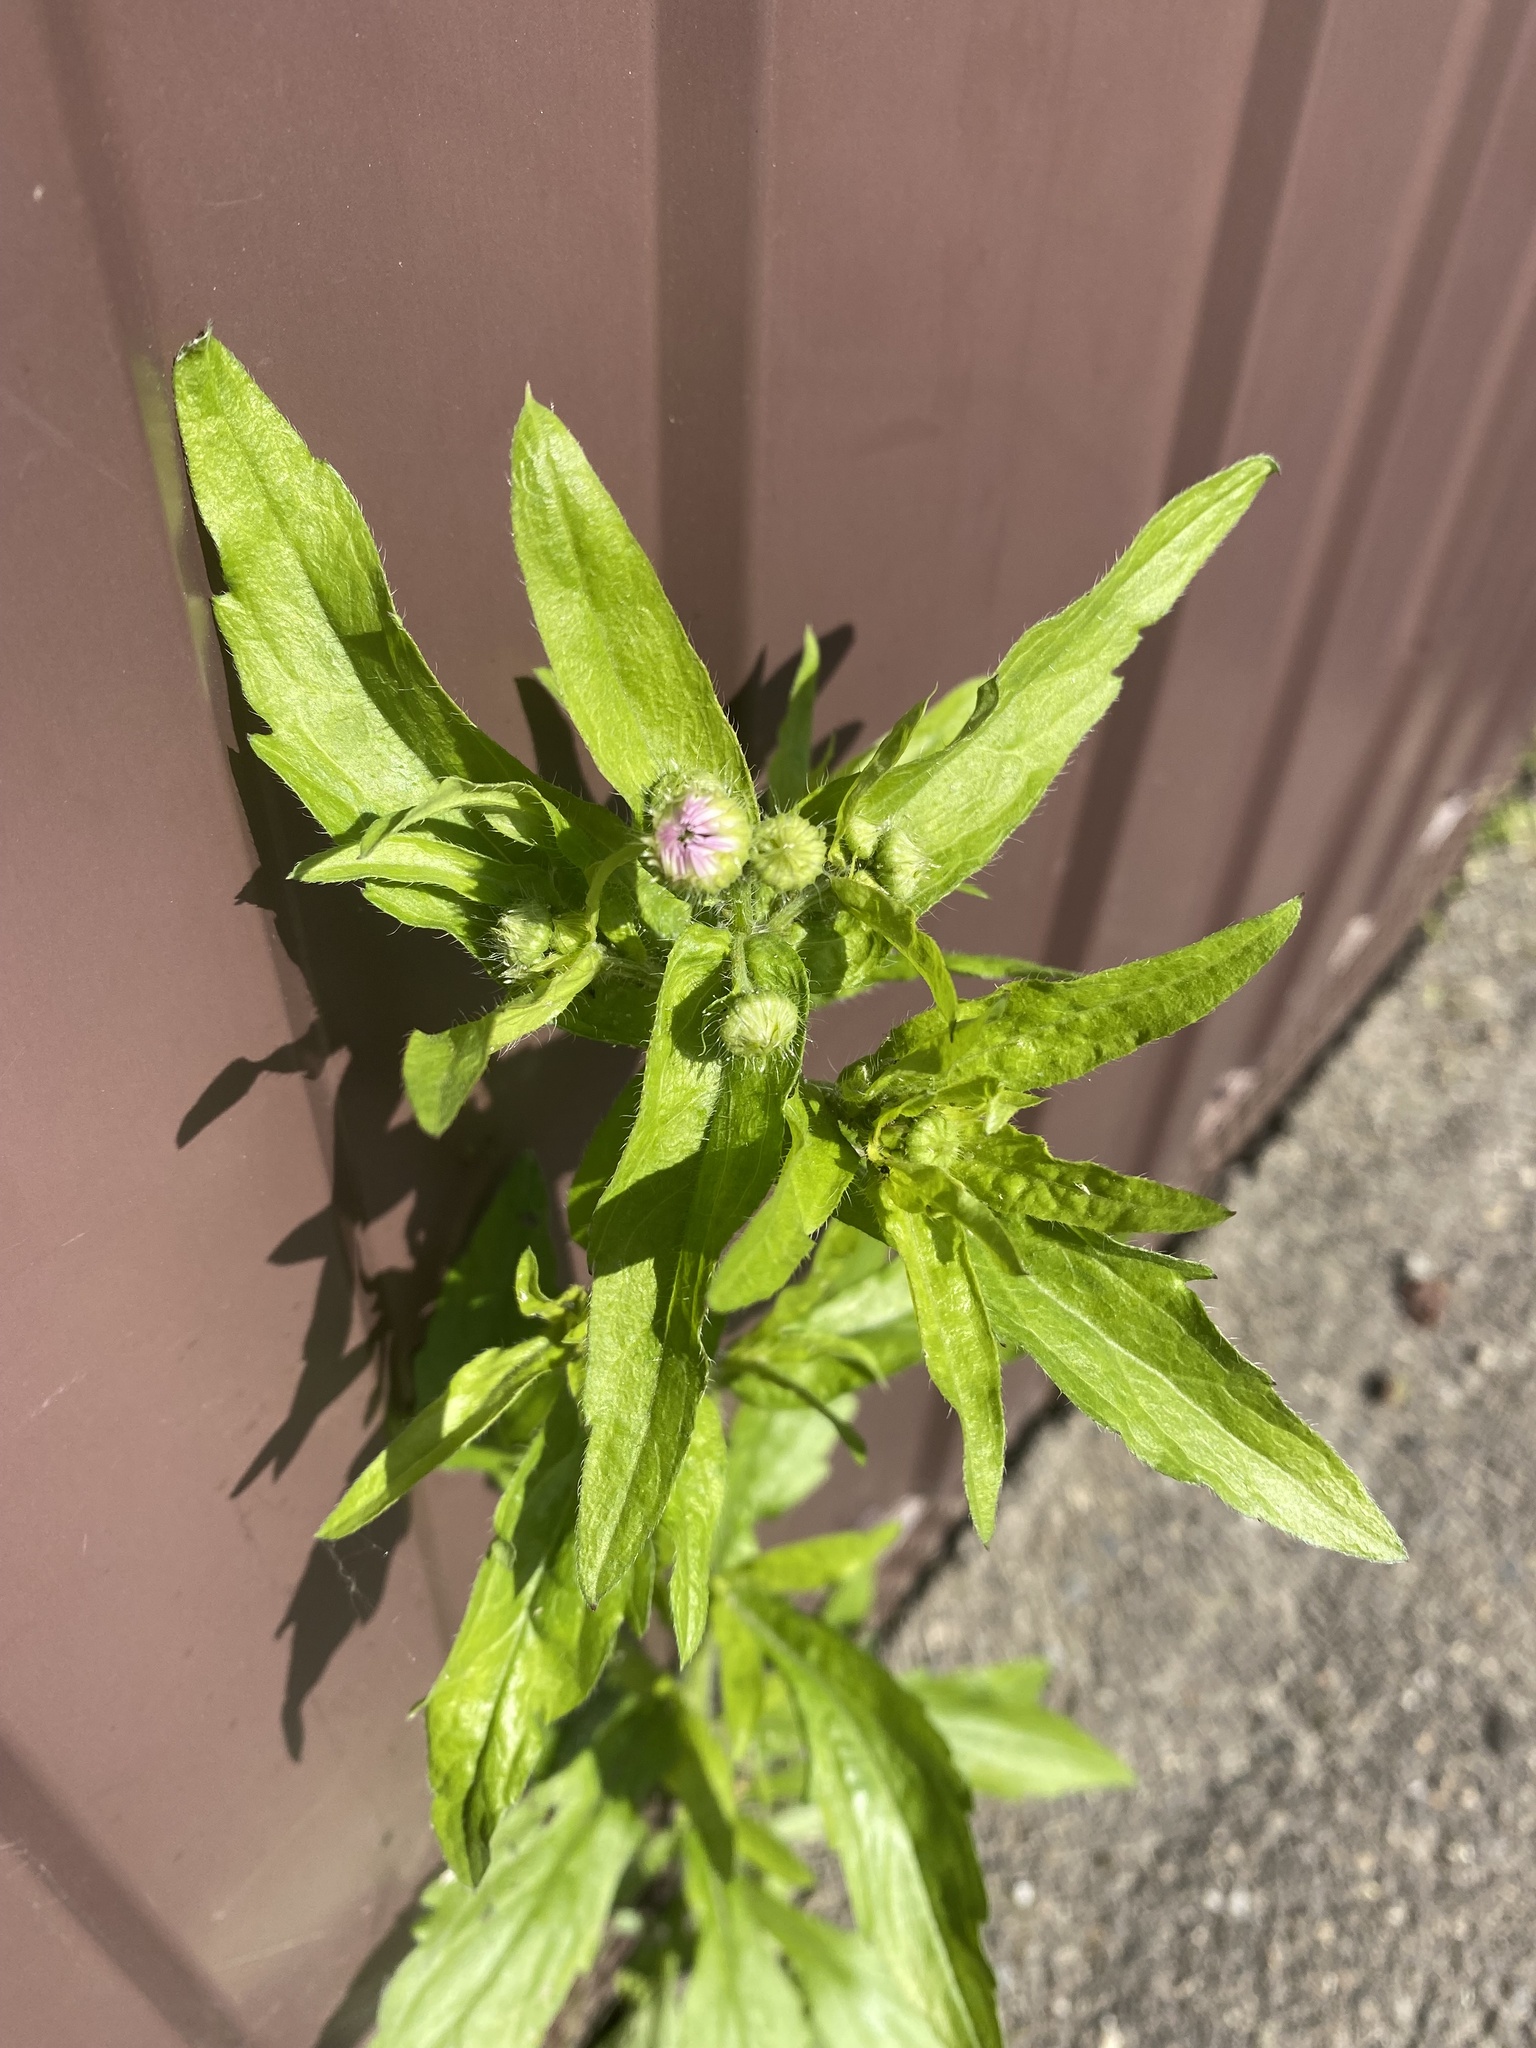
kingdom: Plantae
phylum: Tracheophyta
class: Magnoliopsida
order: Asterales
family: Asteraceae
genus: Erigeron
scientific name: Erigeron annuus
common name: Tall fleabane
